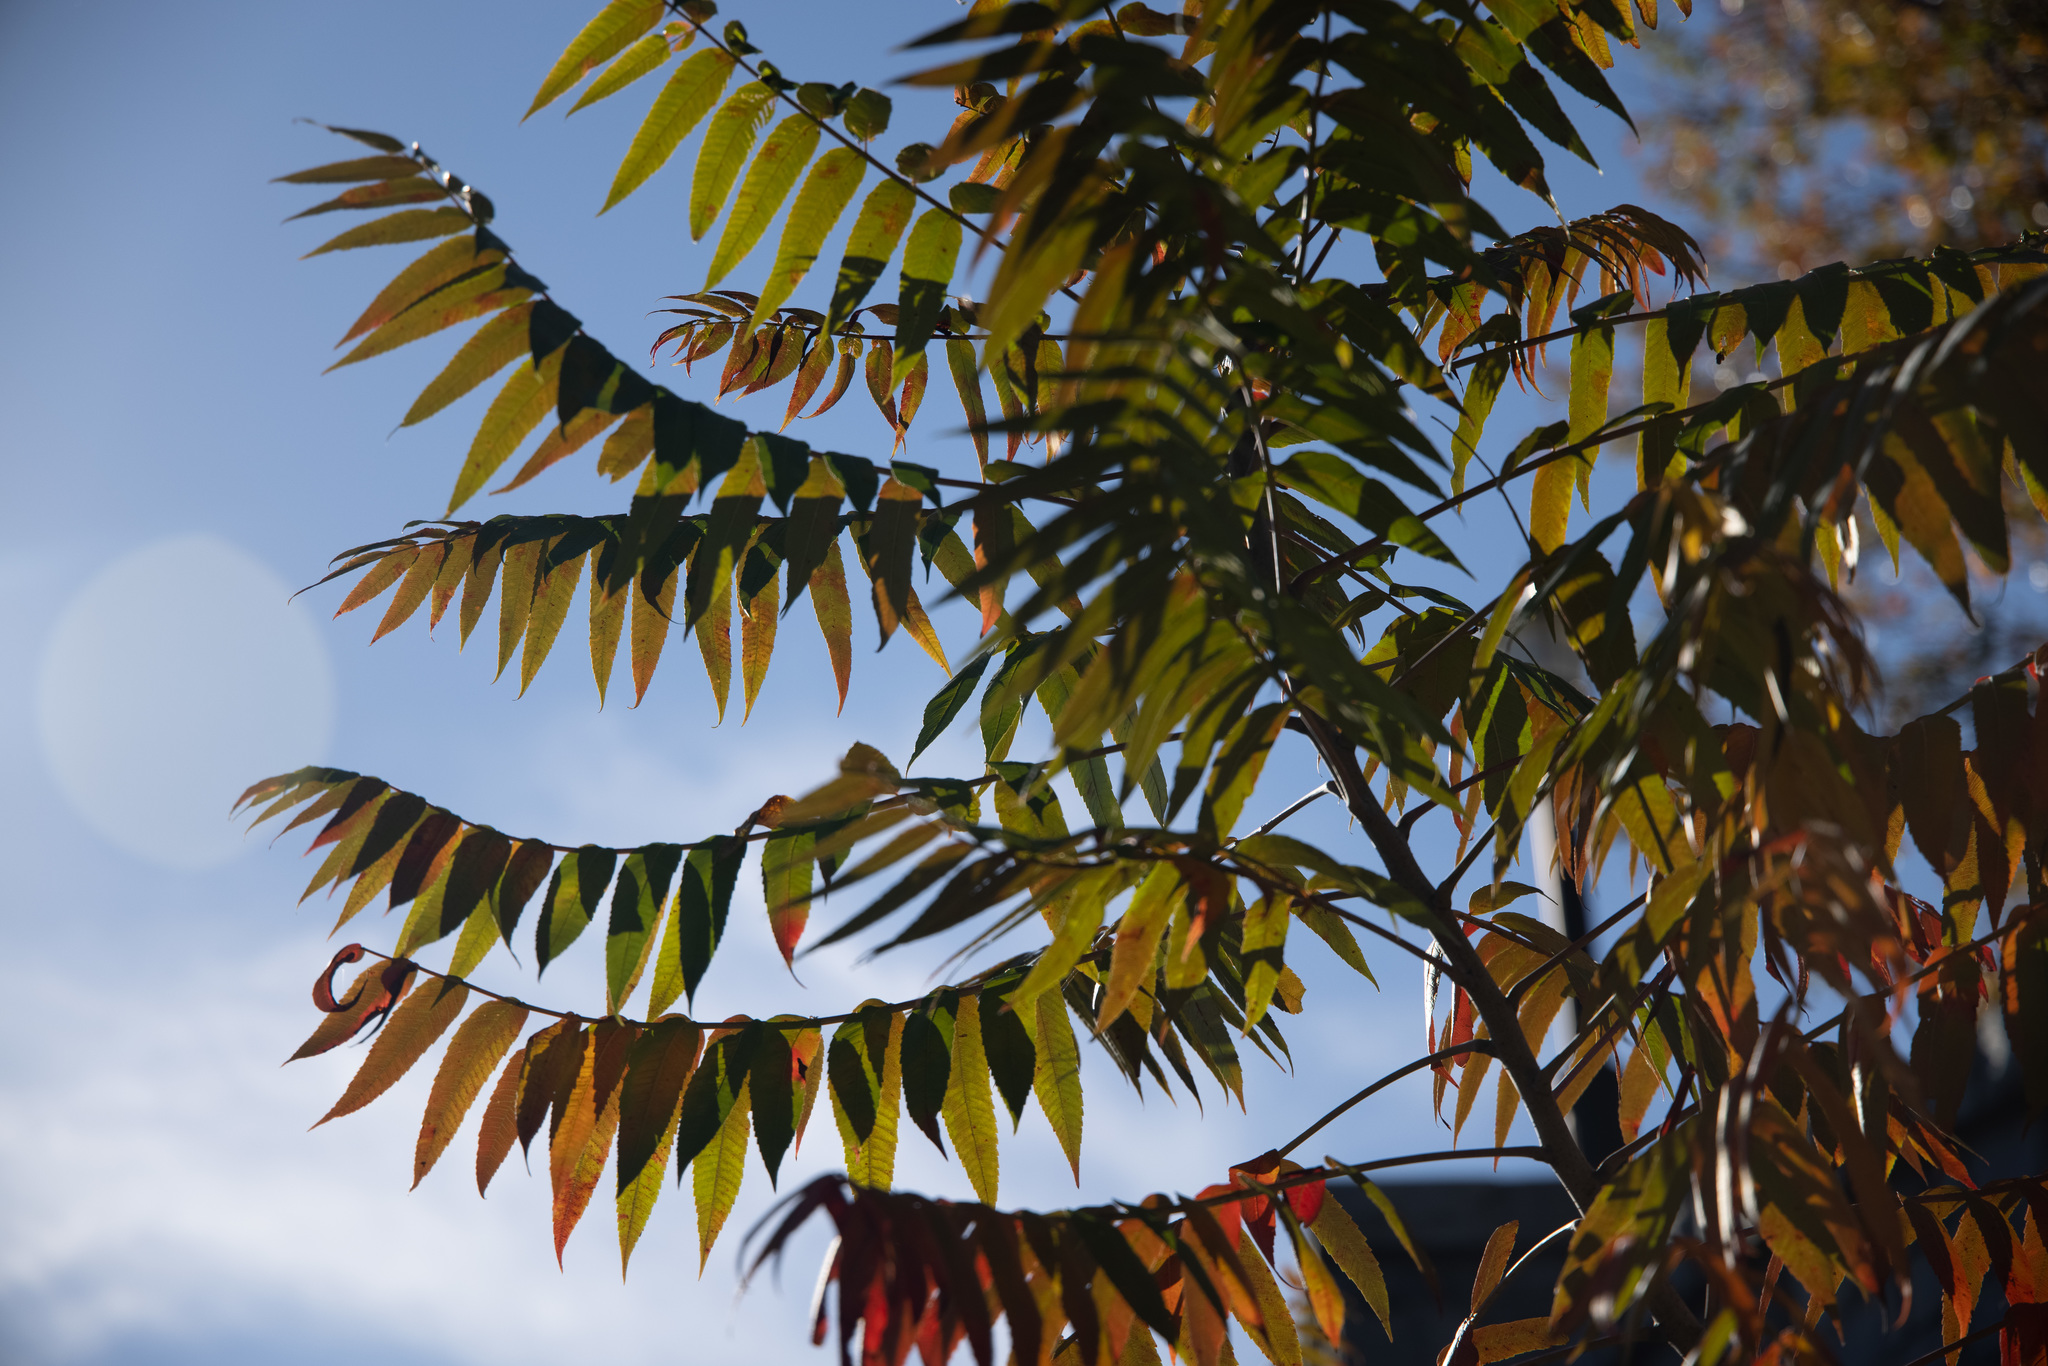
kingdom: Plantae
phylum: Tracheophyta
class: Magnoliopsida
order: Sapindales
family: Anacardiaceae
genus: Rhus
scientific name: Rhus glabra
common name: Scarlet sumac
